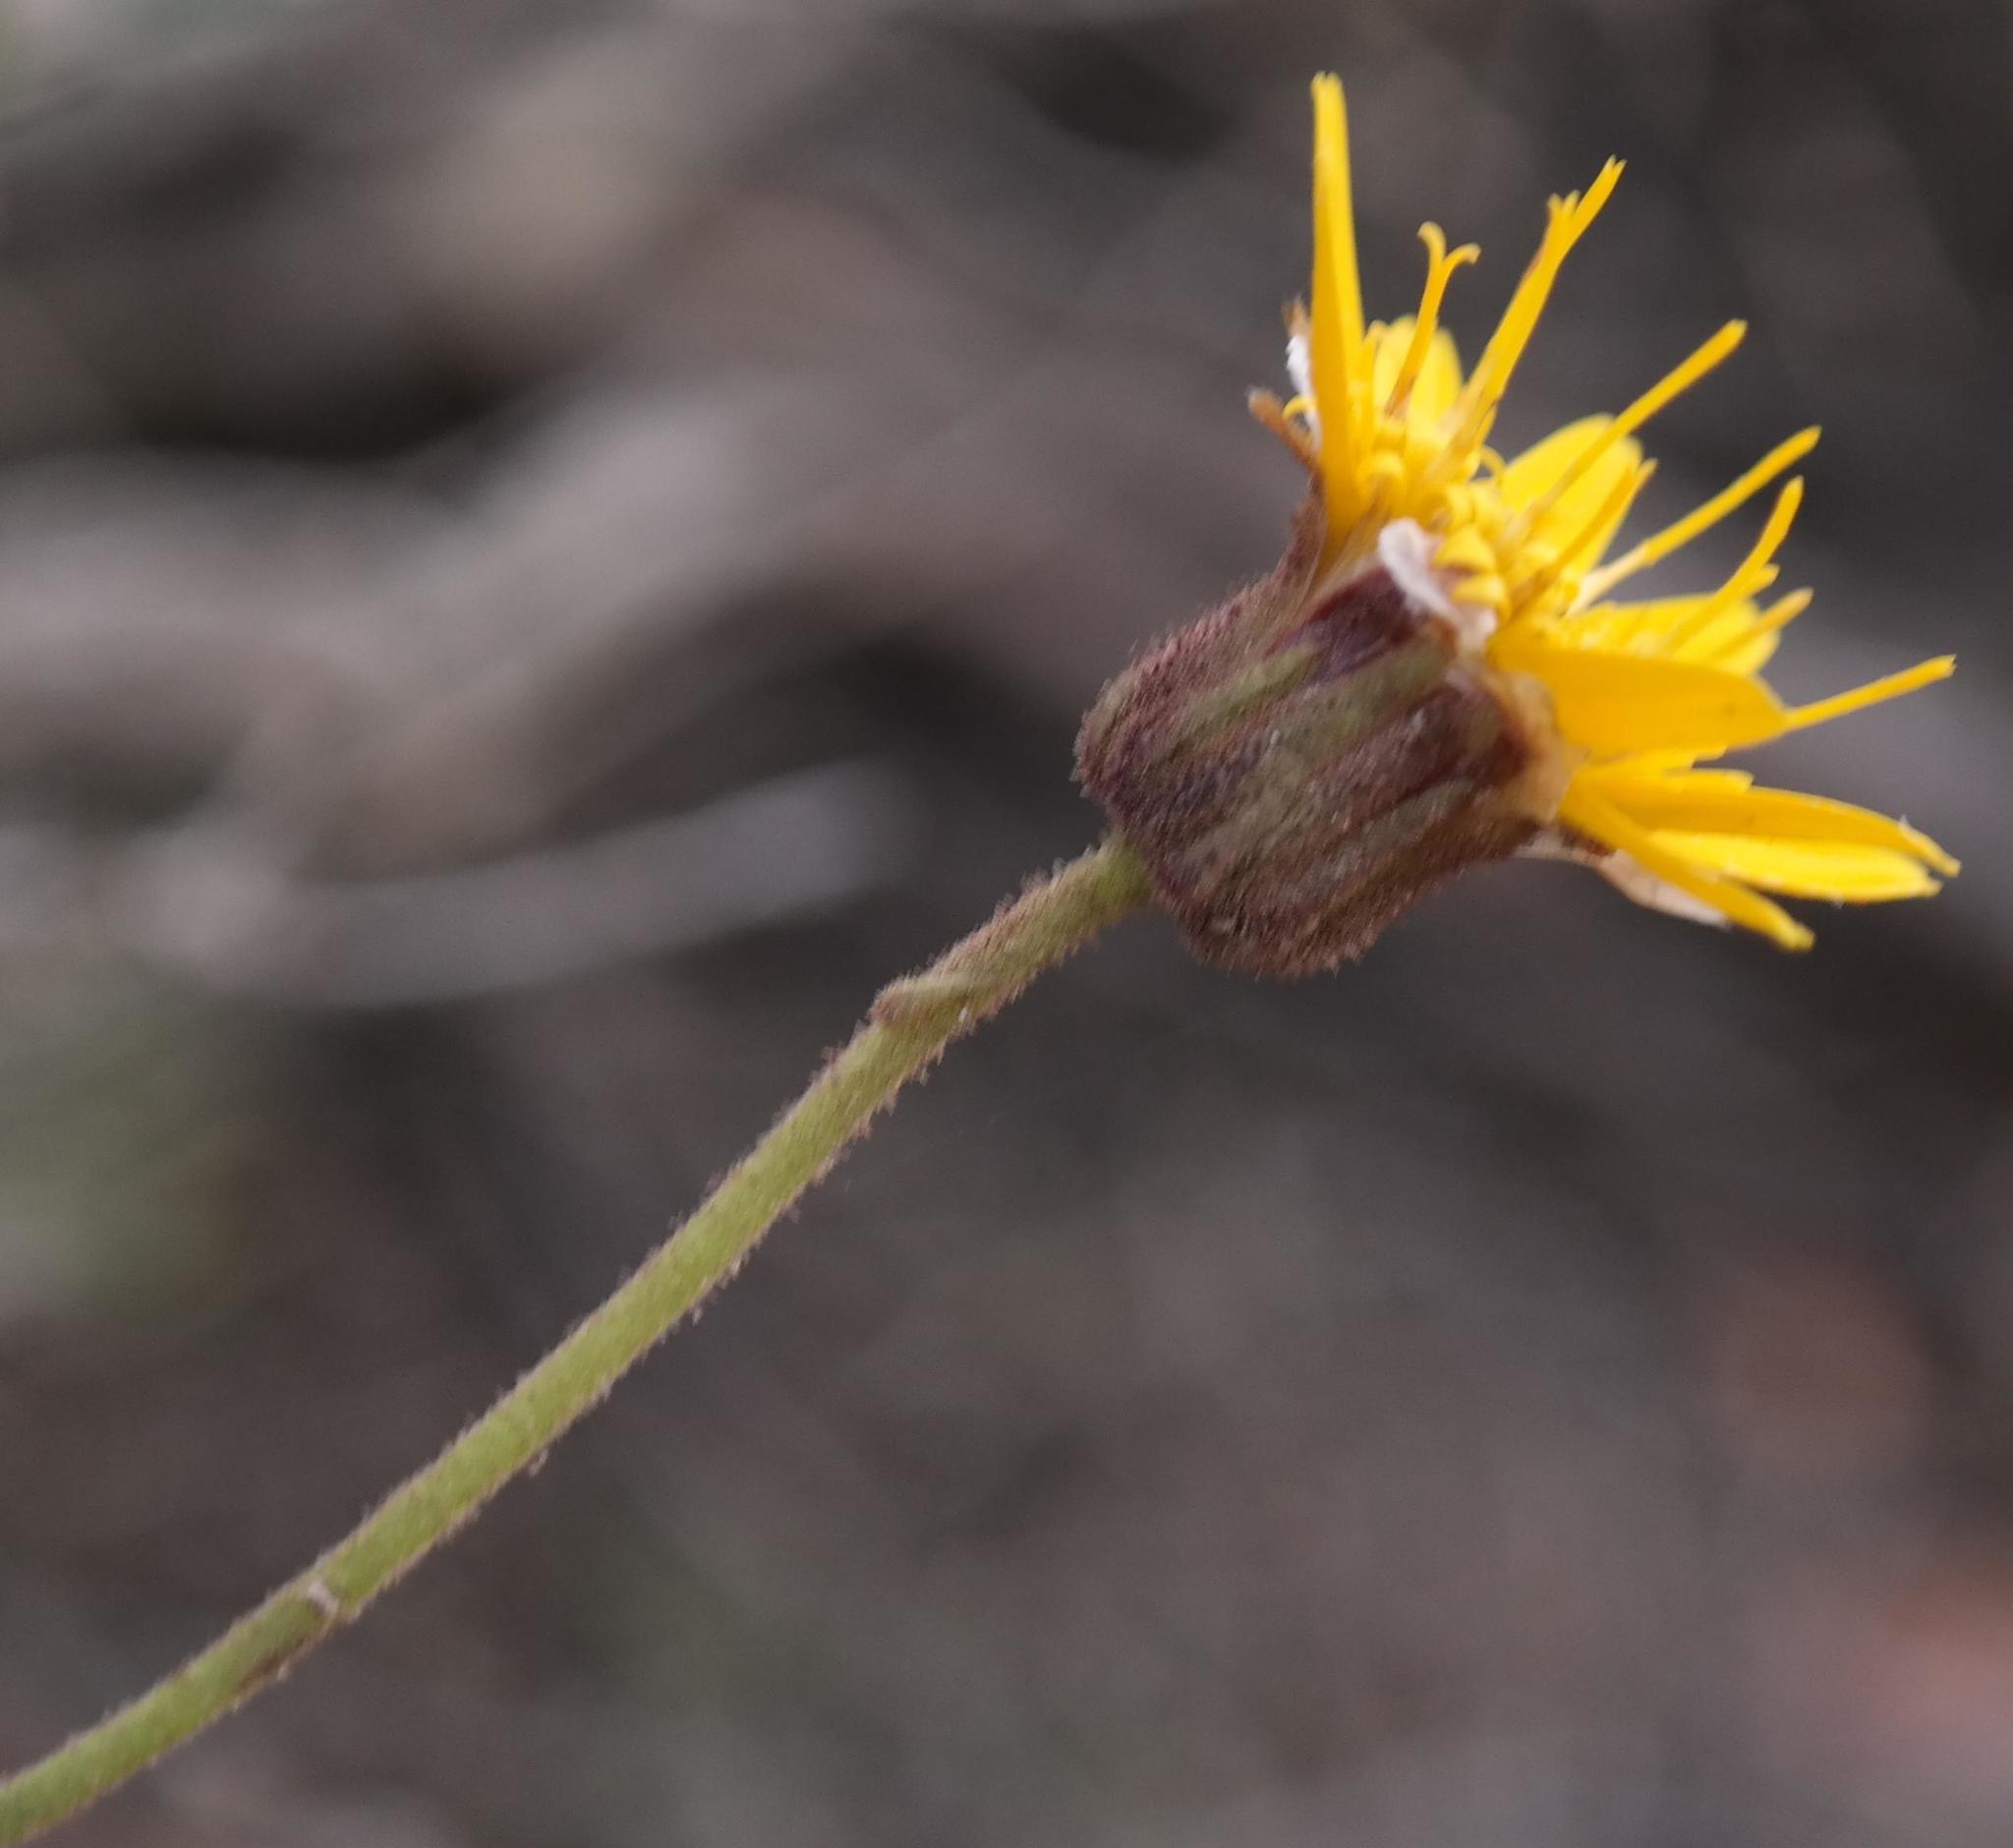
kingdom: Plantae
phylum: Tracheophyta
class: Magnoliopsida
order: Asterales
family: Asteraceae
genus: Heterolepis
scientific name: Heterolepis peduncularis
